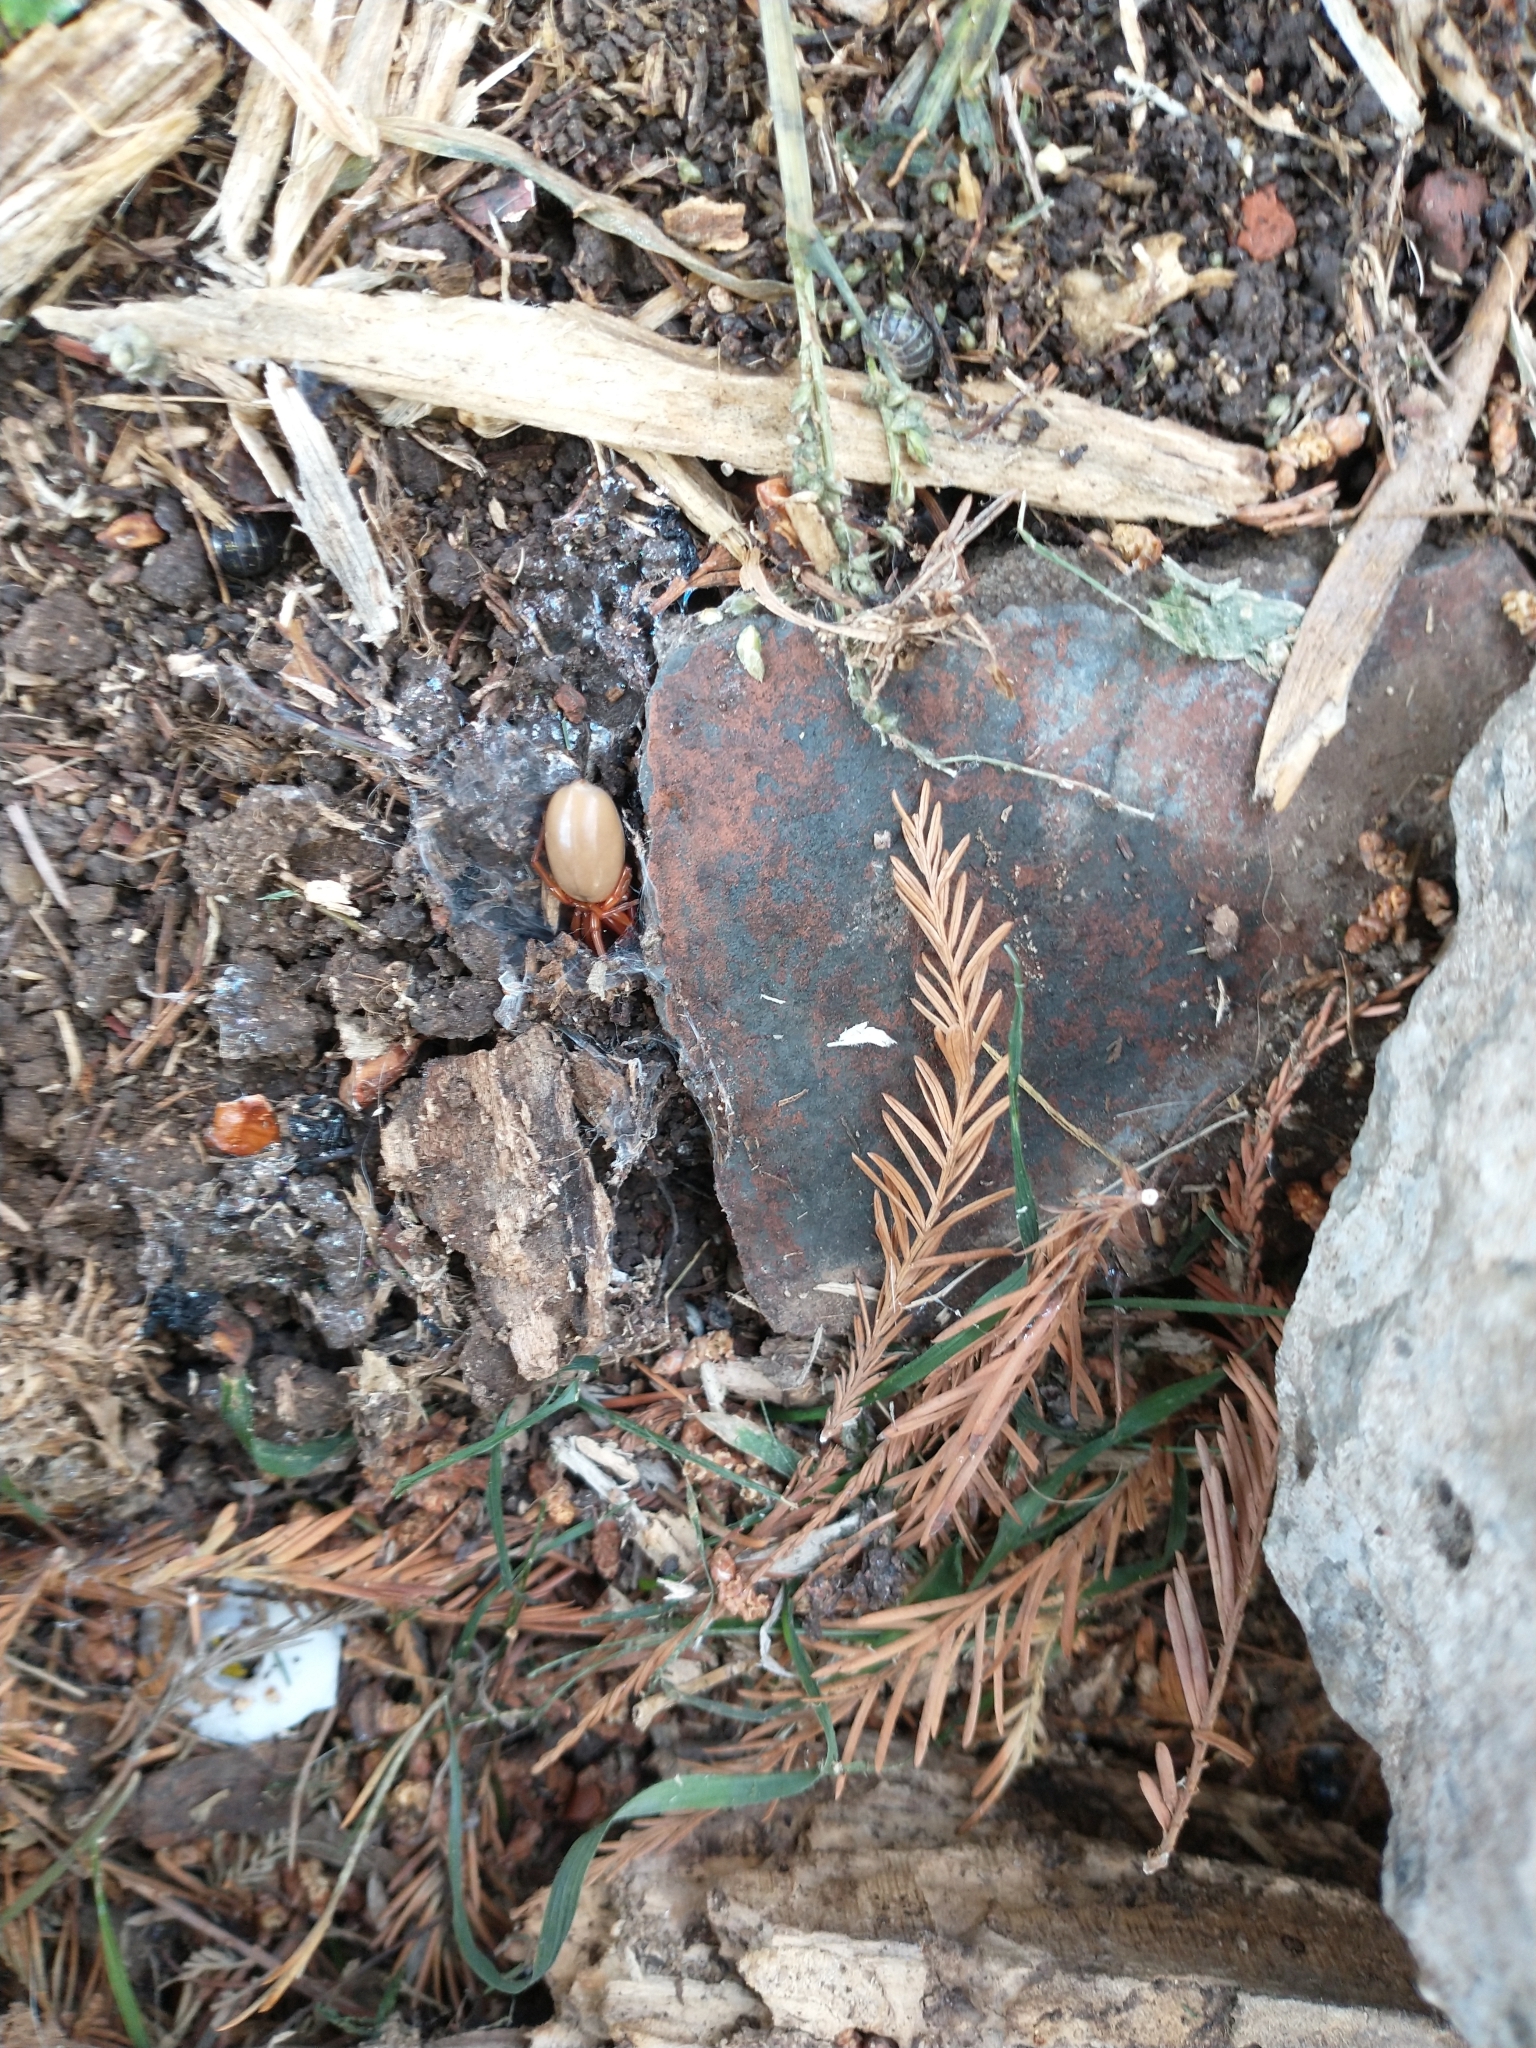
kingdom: Animalia
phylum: Arthropoda
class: Arachnida
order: Araneae
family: Dysderidae
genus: Dysdera
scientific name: Dysdera crocata
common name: Woodlouse spider
